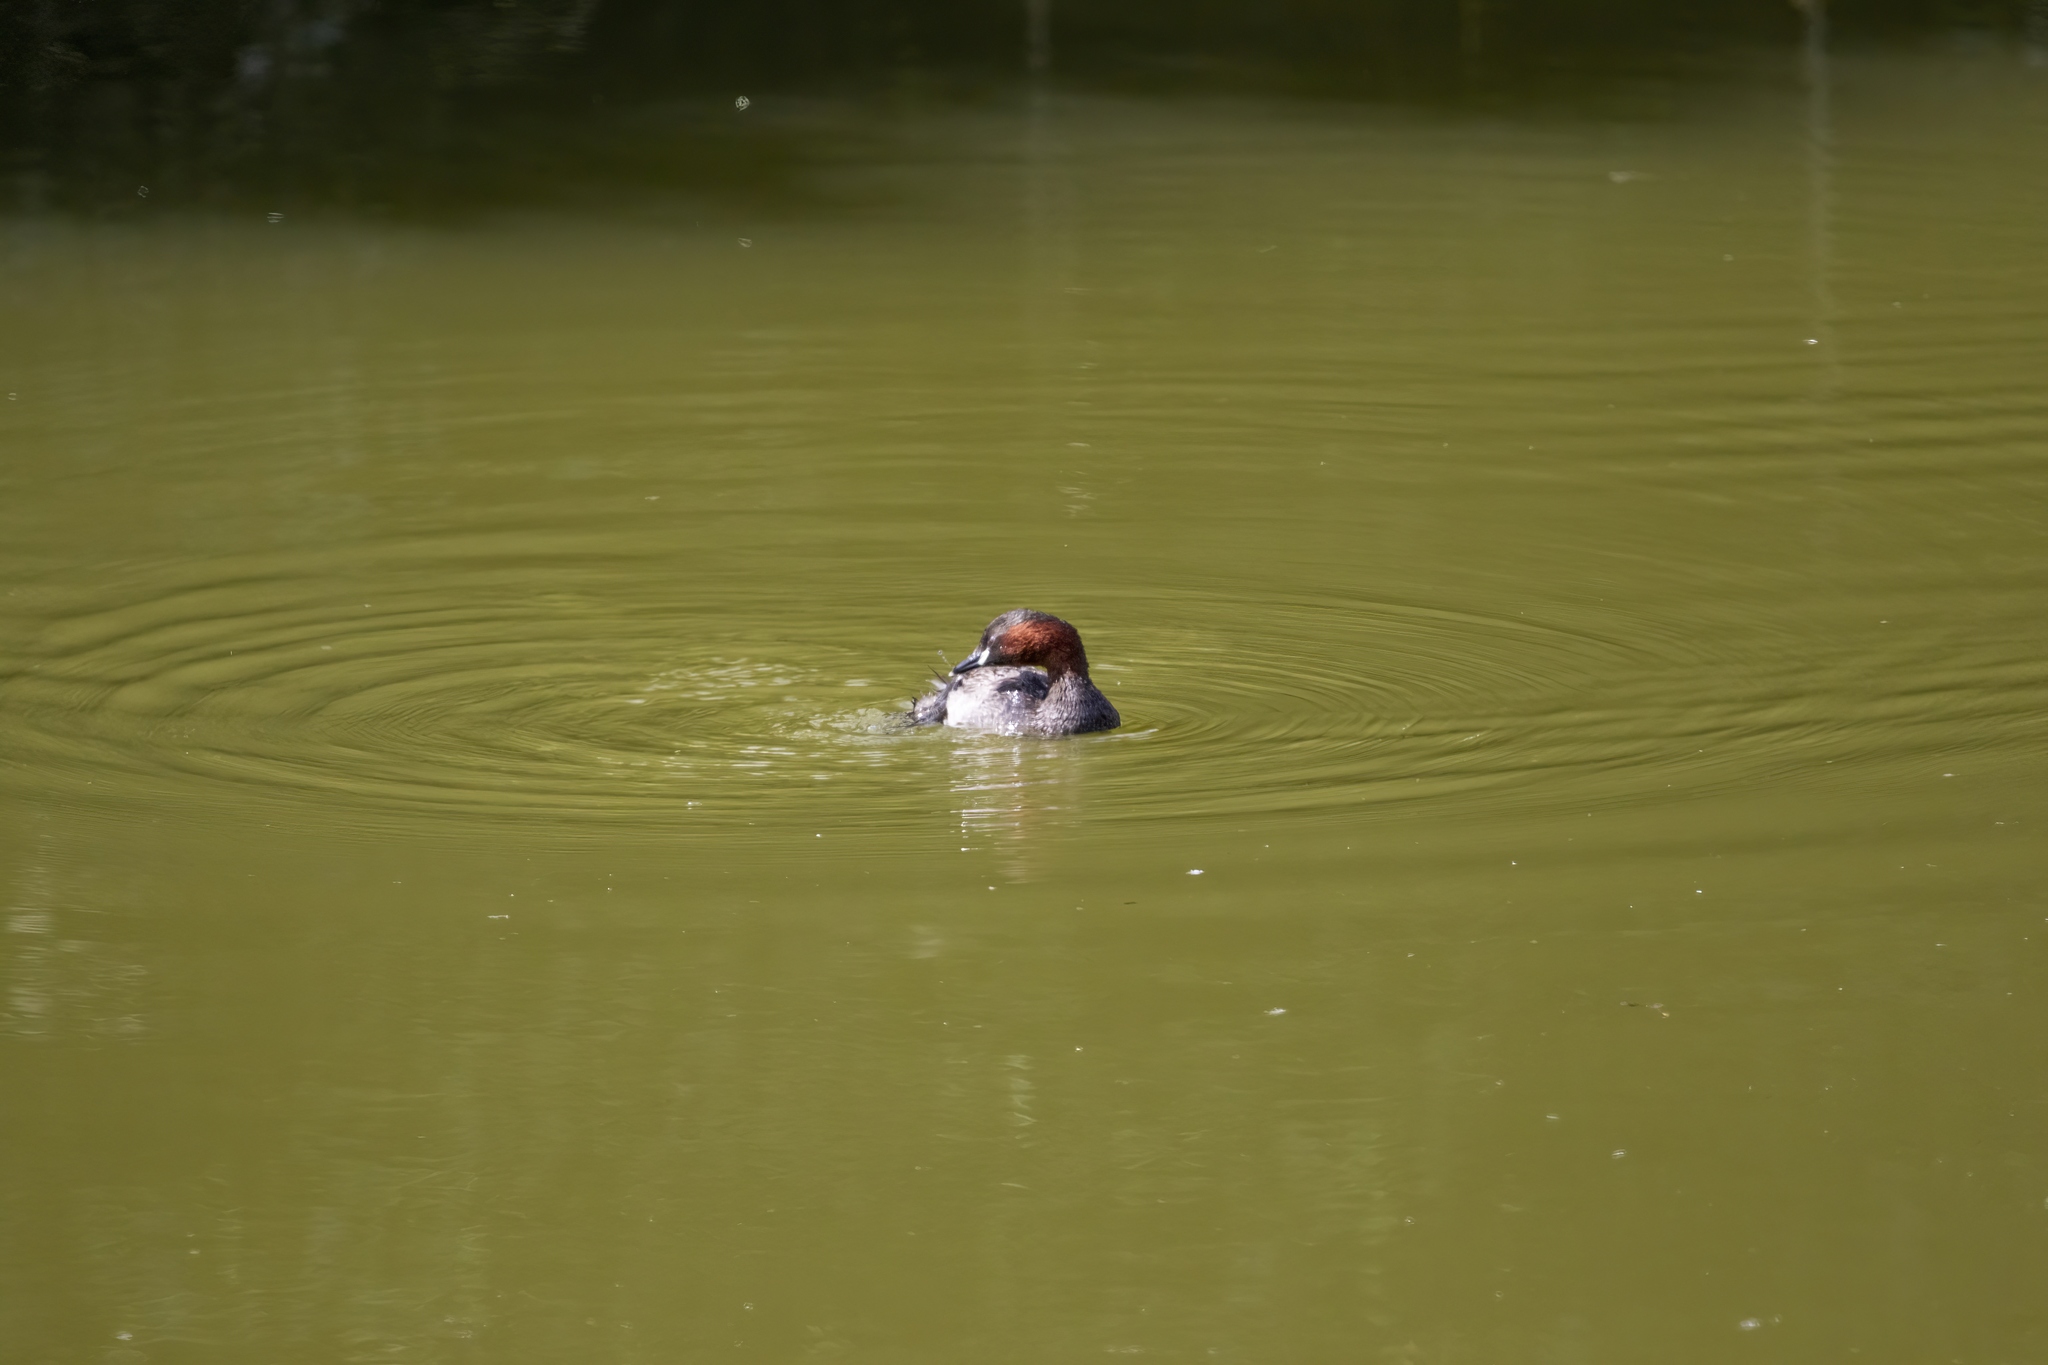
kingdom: Animalia
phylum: Chordata
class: Aves
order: Podicipediformes
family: Podicipedidae
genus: Tachybaptus
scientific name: Tachybaptus ruficollis
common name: Little grebe
